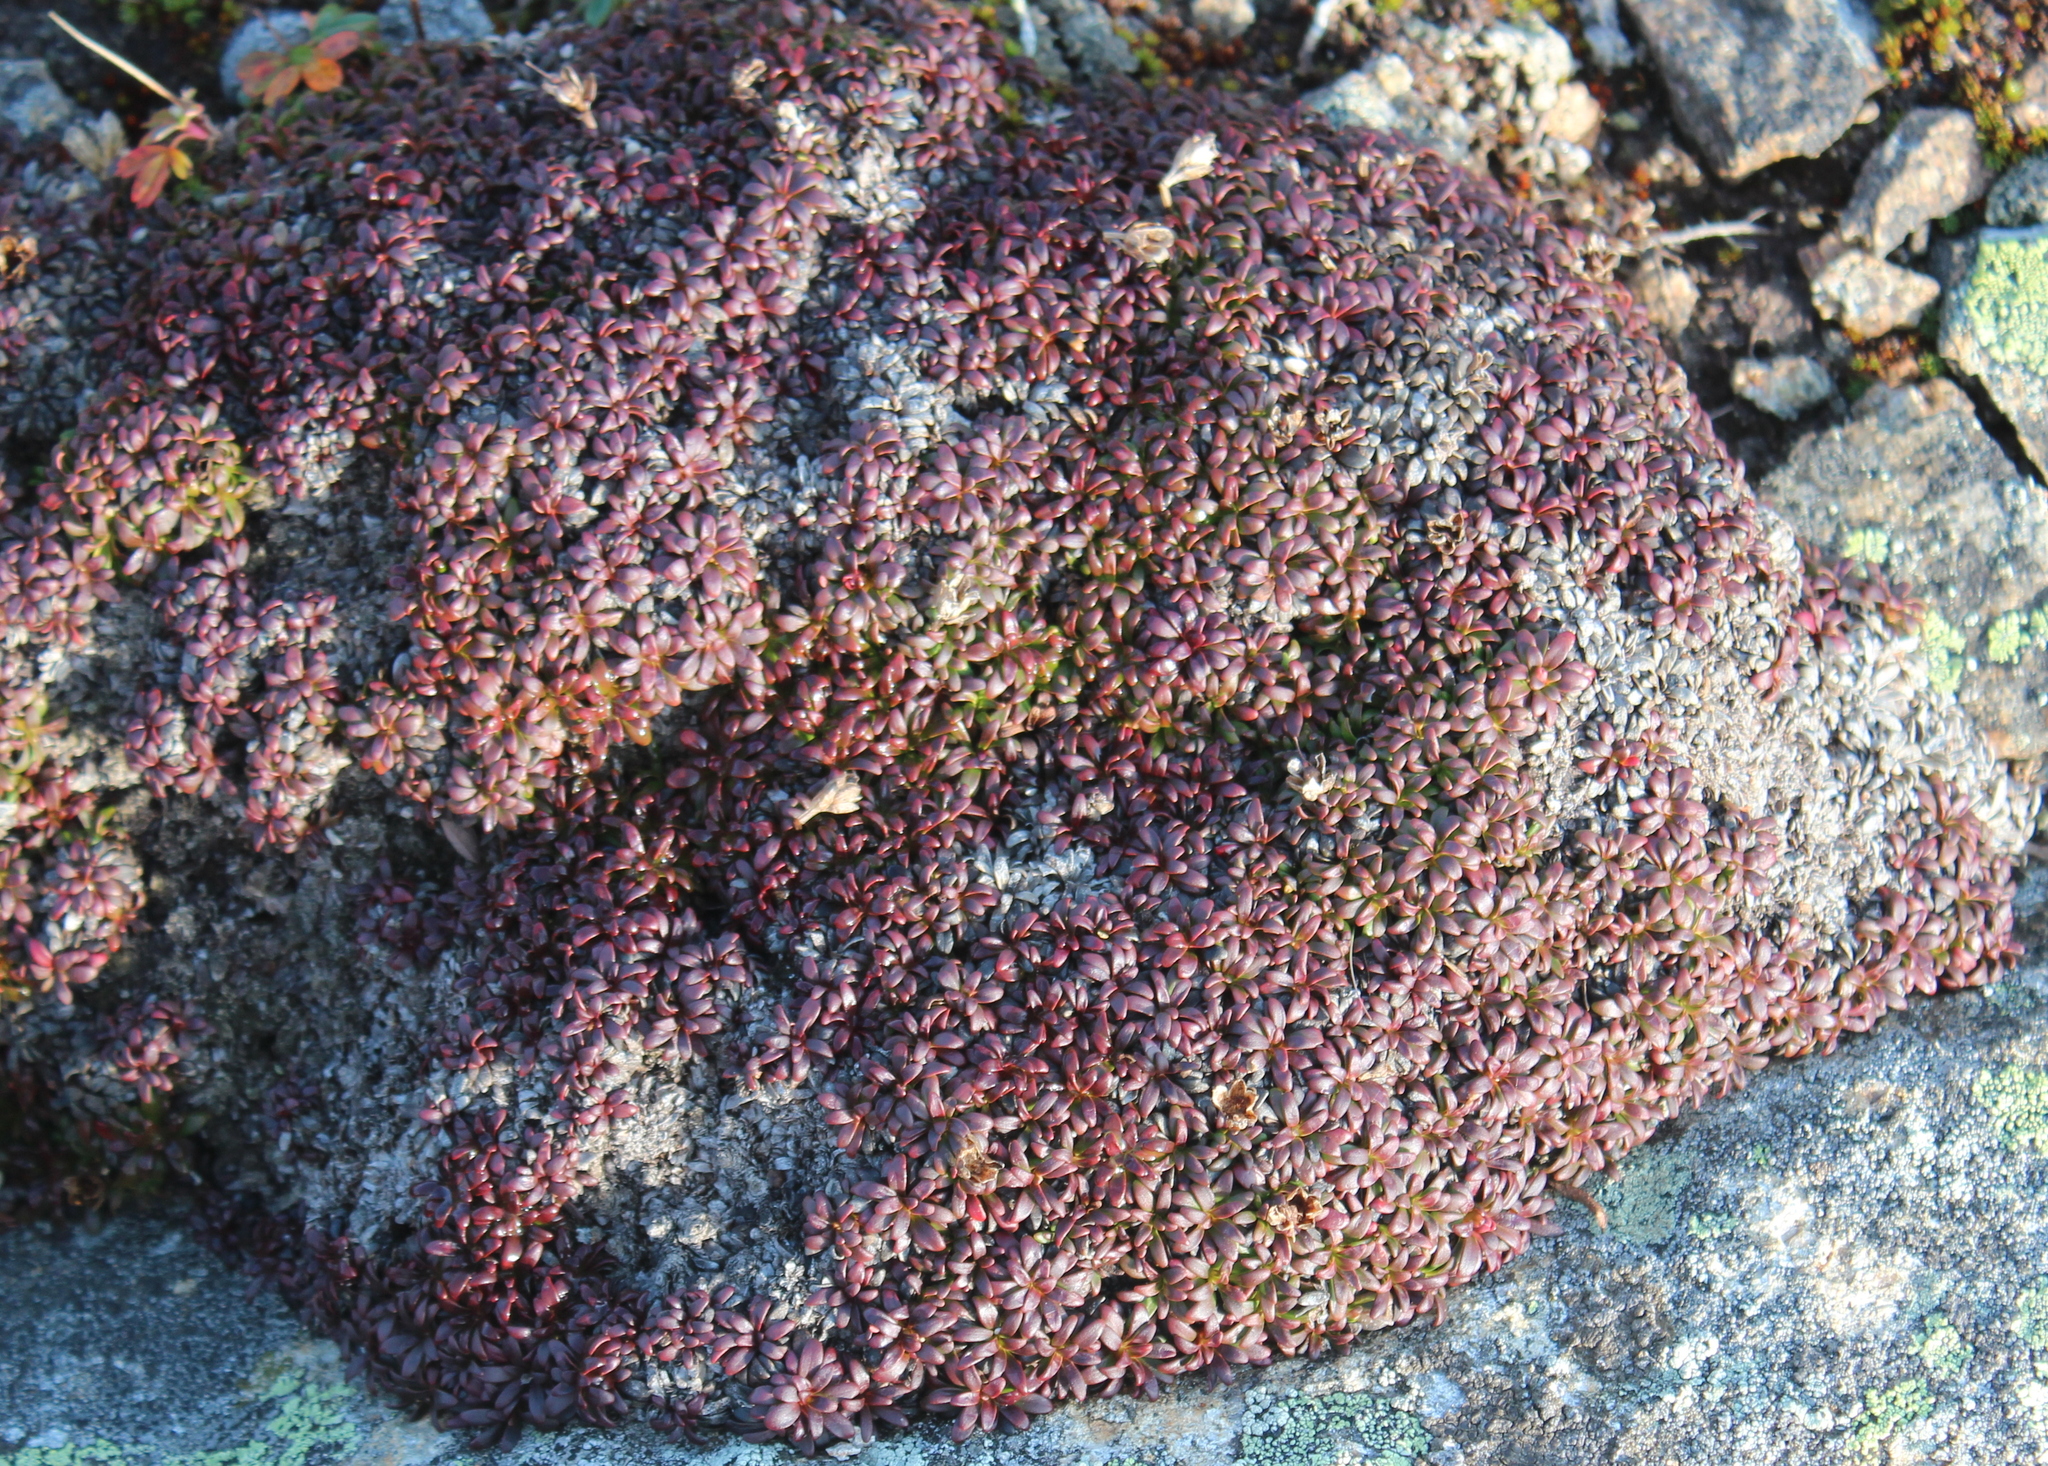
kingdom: Plantae
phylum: Tracheophyta
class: Magnoliopsida
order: Ericales
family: Diapensiaceae
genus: Diapensia
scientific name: Diapensia lapponica
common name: Diapensia
